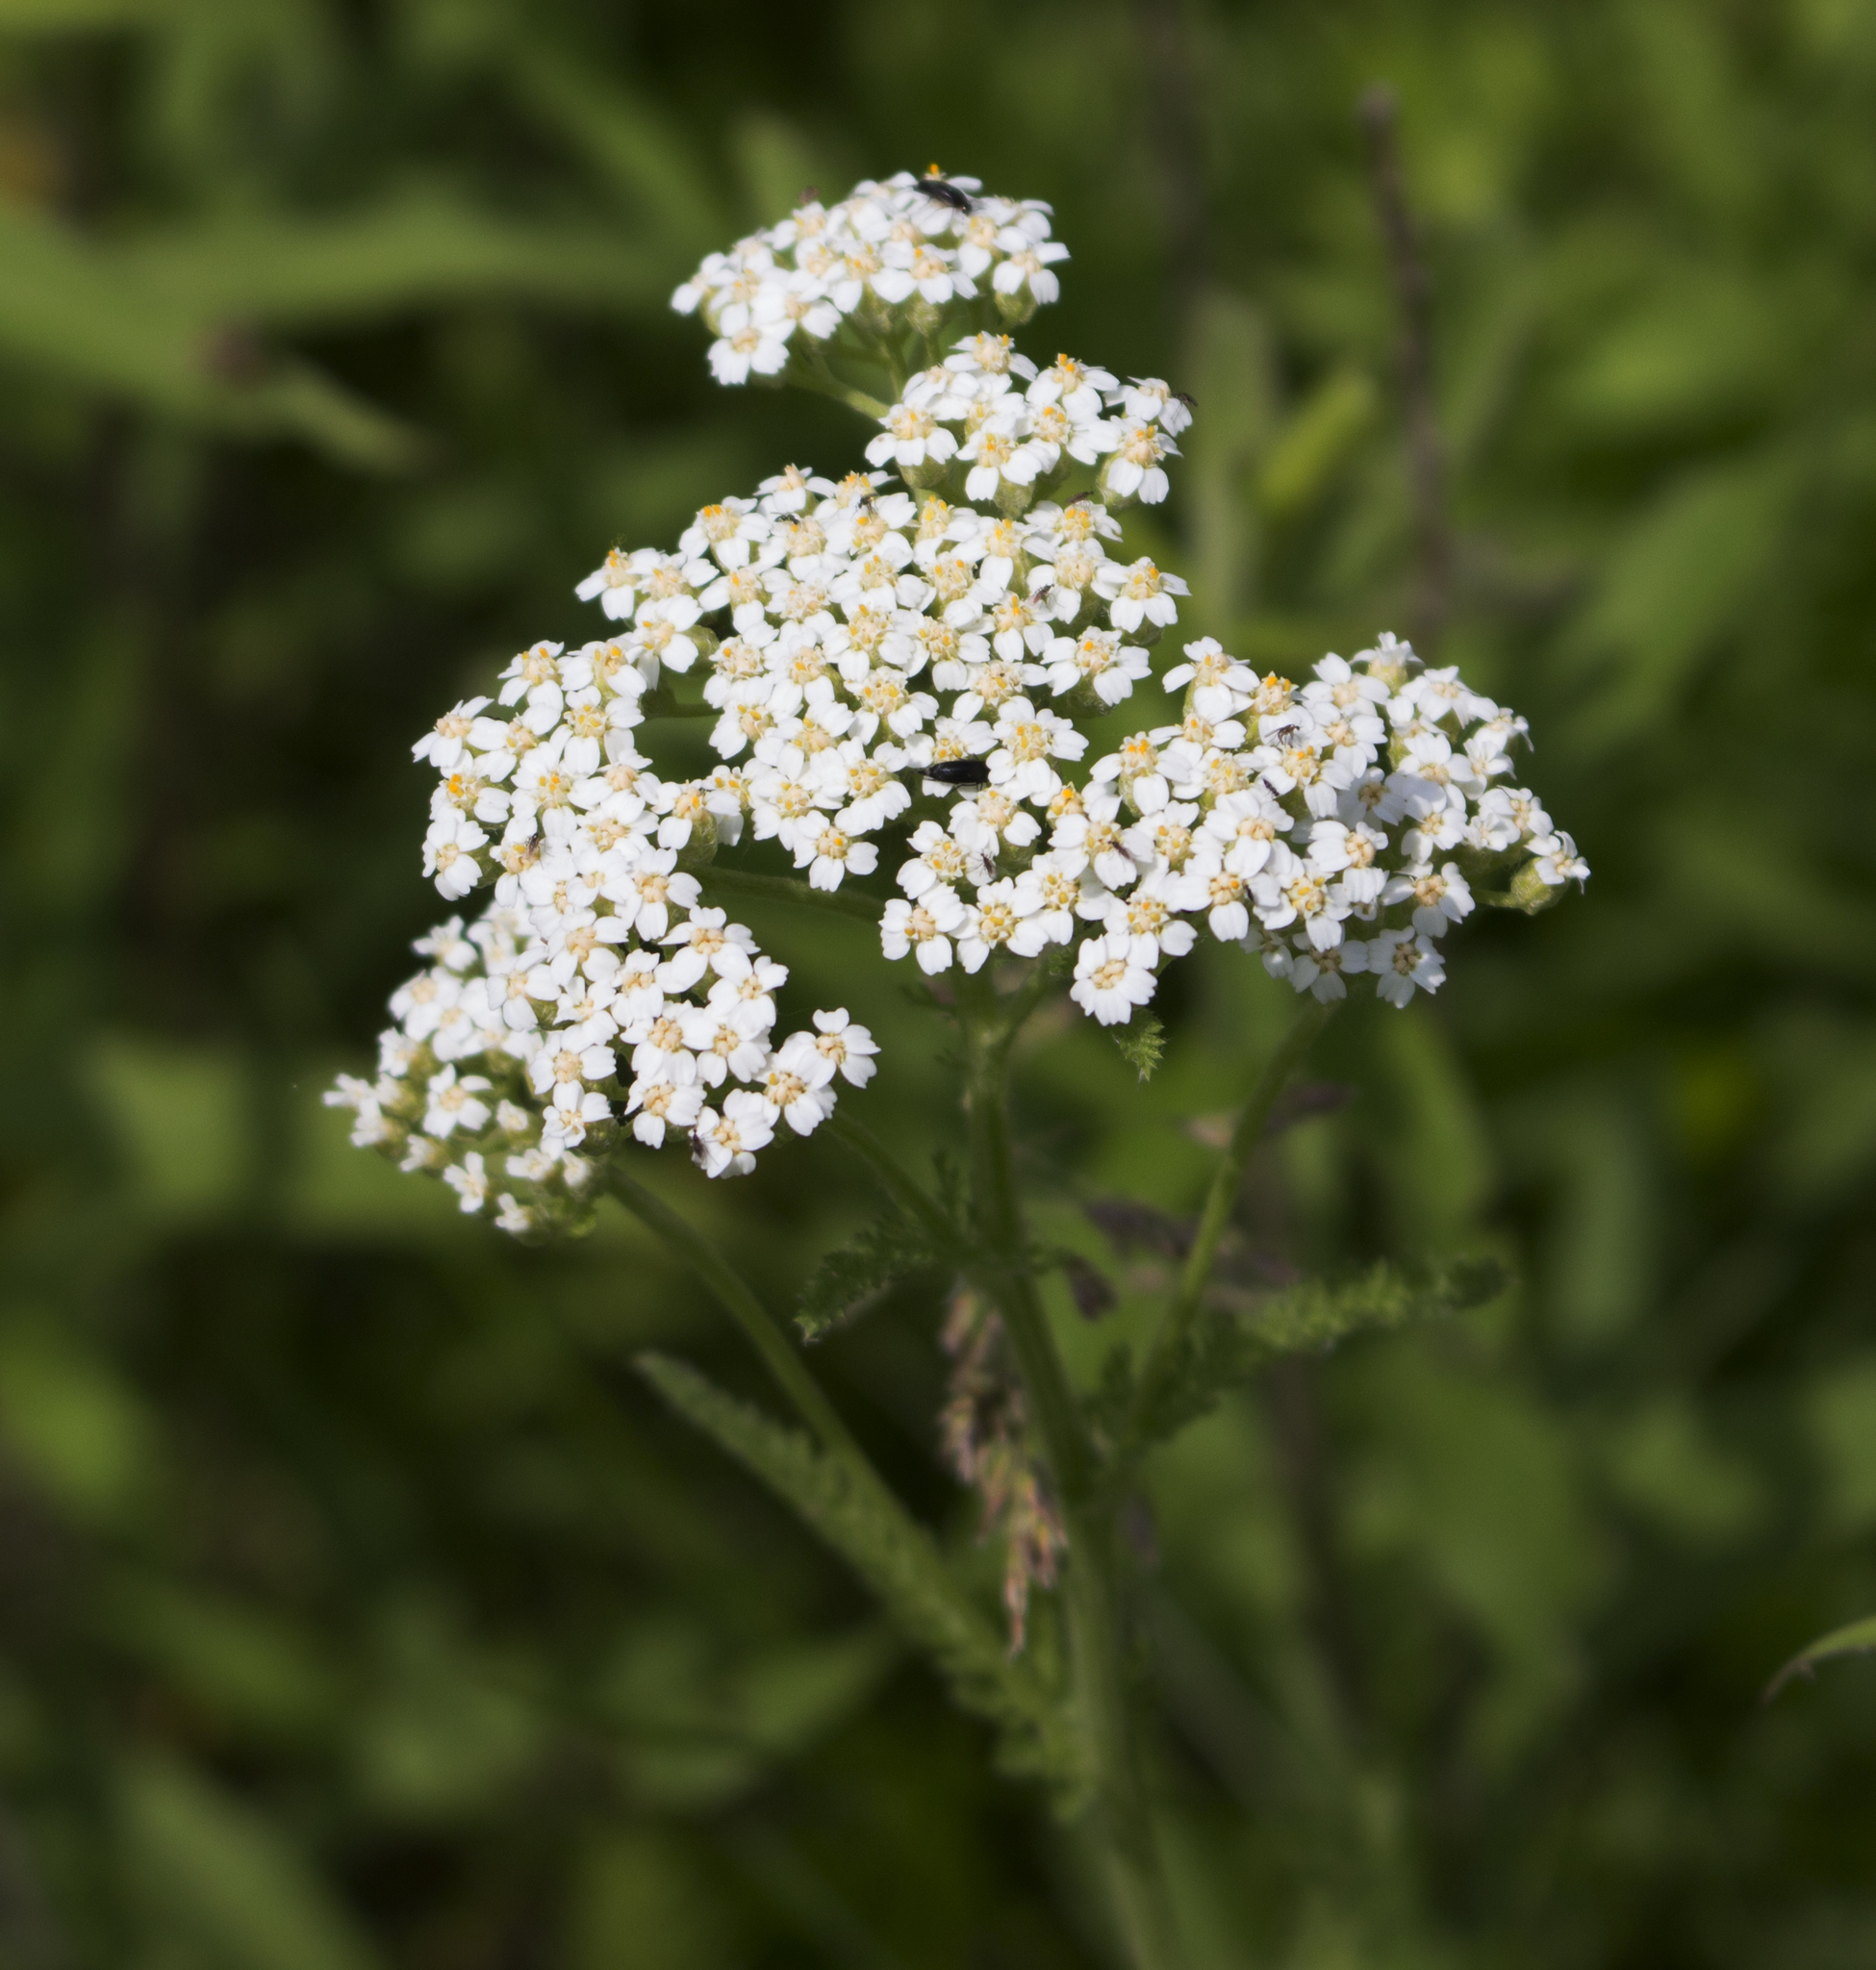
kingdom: Plantae
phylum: Tracheophyta
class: Magnoliopsida
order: Asterales
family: Asteraceae
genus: Achillea
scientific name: Achillea millefolium
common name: Yarrow
